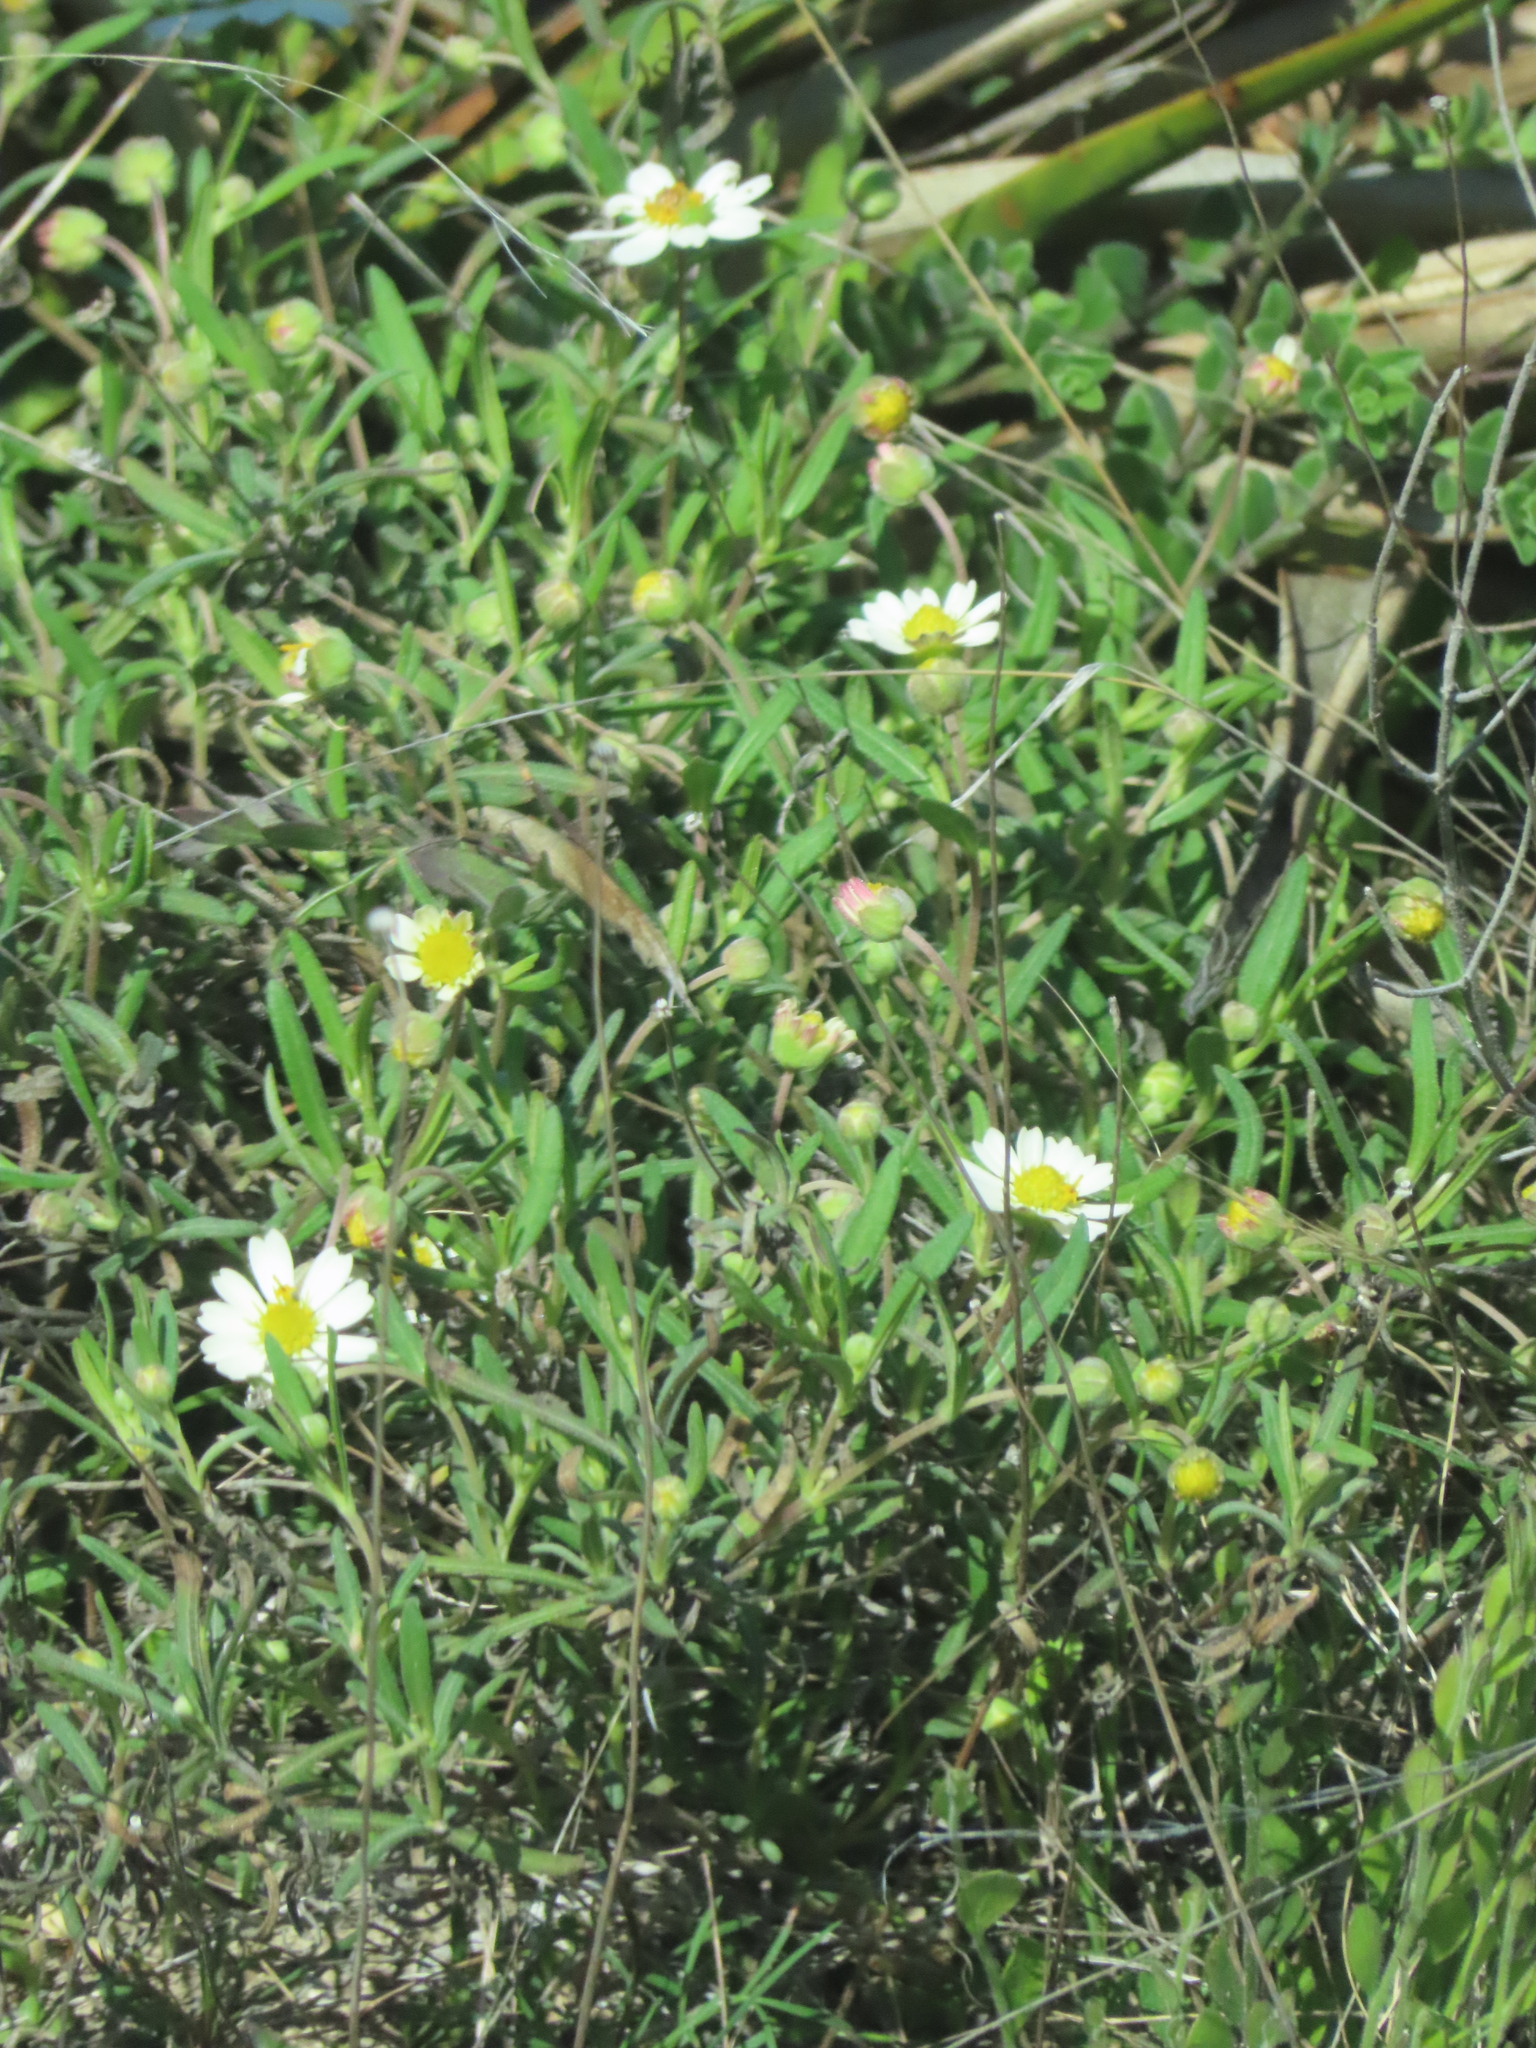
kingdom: Plantae
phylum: Tracheophyta
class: Magnoliopsida
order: Asterales
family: Asteraceae
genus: Melampodium
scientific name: Melampodium leucanthum
